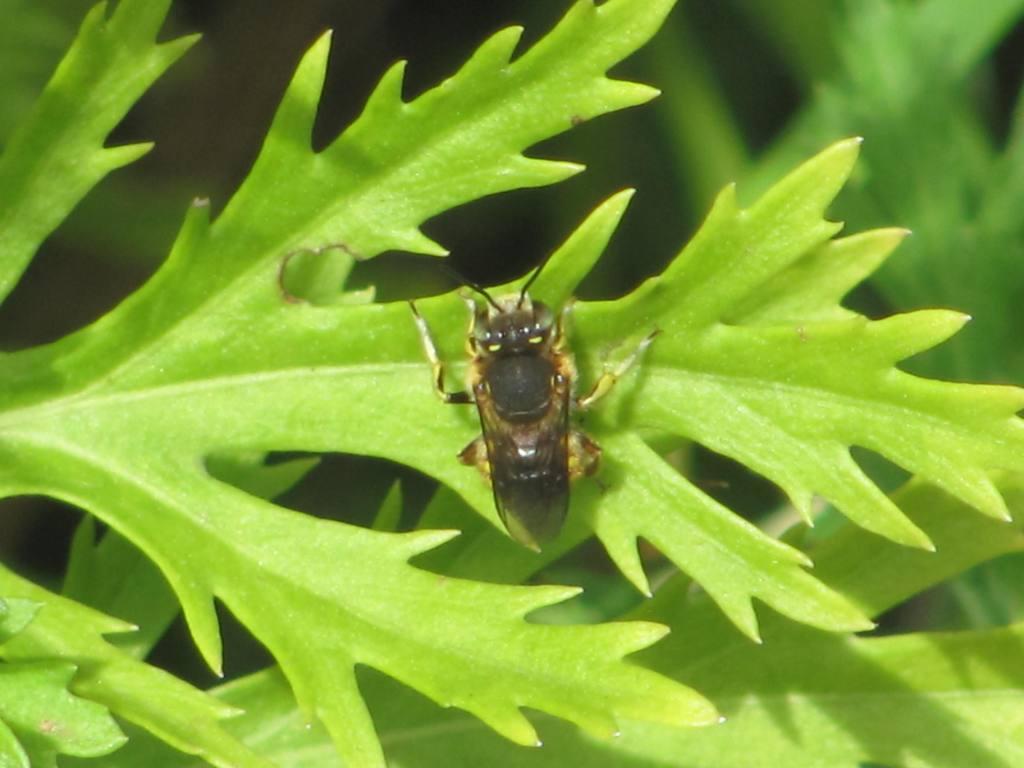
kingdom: Animalia
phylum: Arthropoda
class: Insecta
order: Hymenoptera
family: Megachilidae
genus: Anthidium
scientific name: Anthidium manicatum
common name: Wool carder bee
